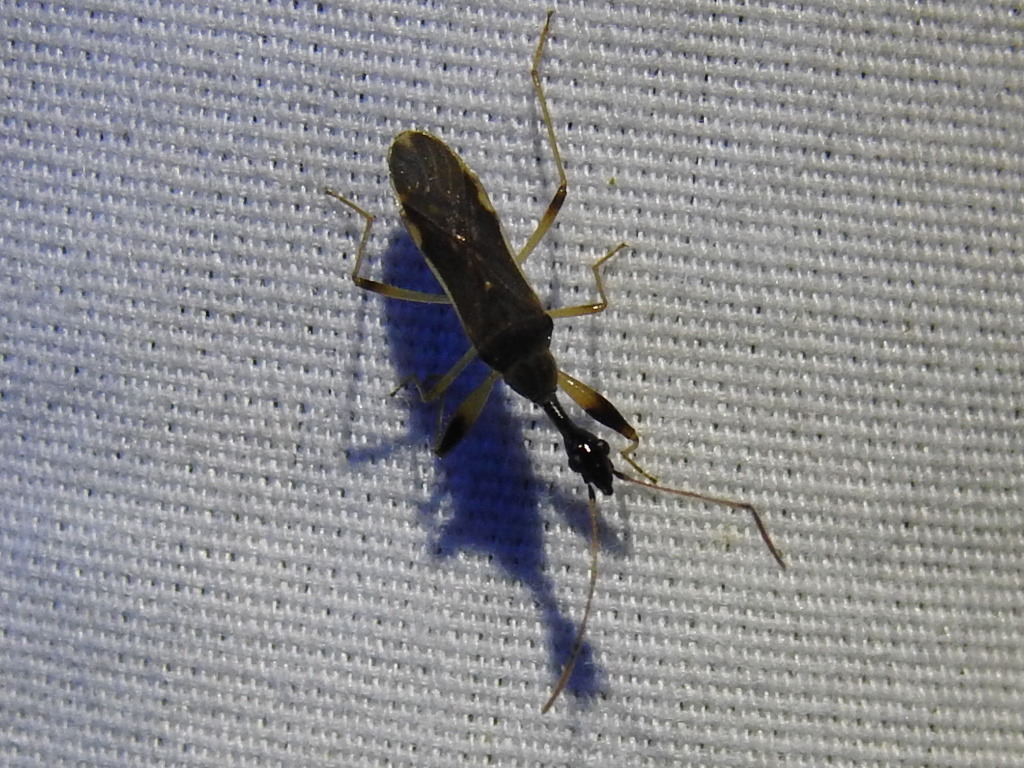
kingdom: Animalia
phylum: Arthropoda
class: Insecta
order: Hemiptera
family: Rhyparochromidae
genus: Myodocha
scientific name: Myodocha serripes
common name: Long-necked seed bug
